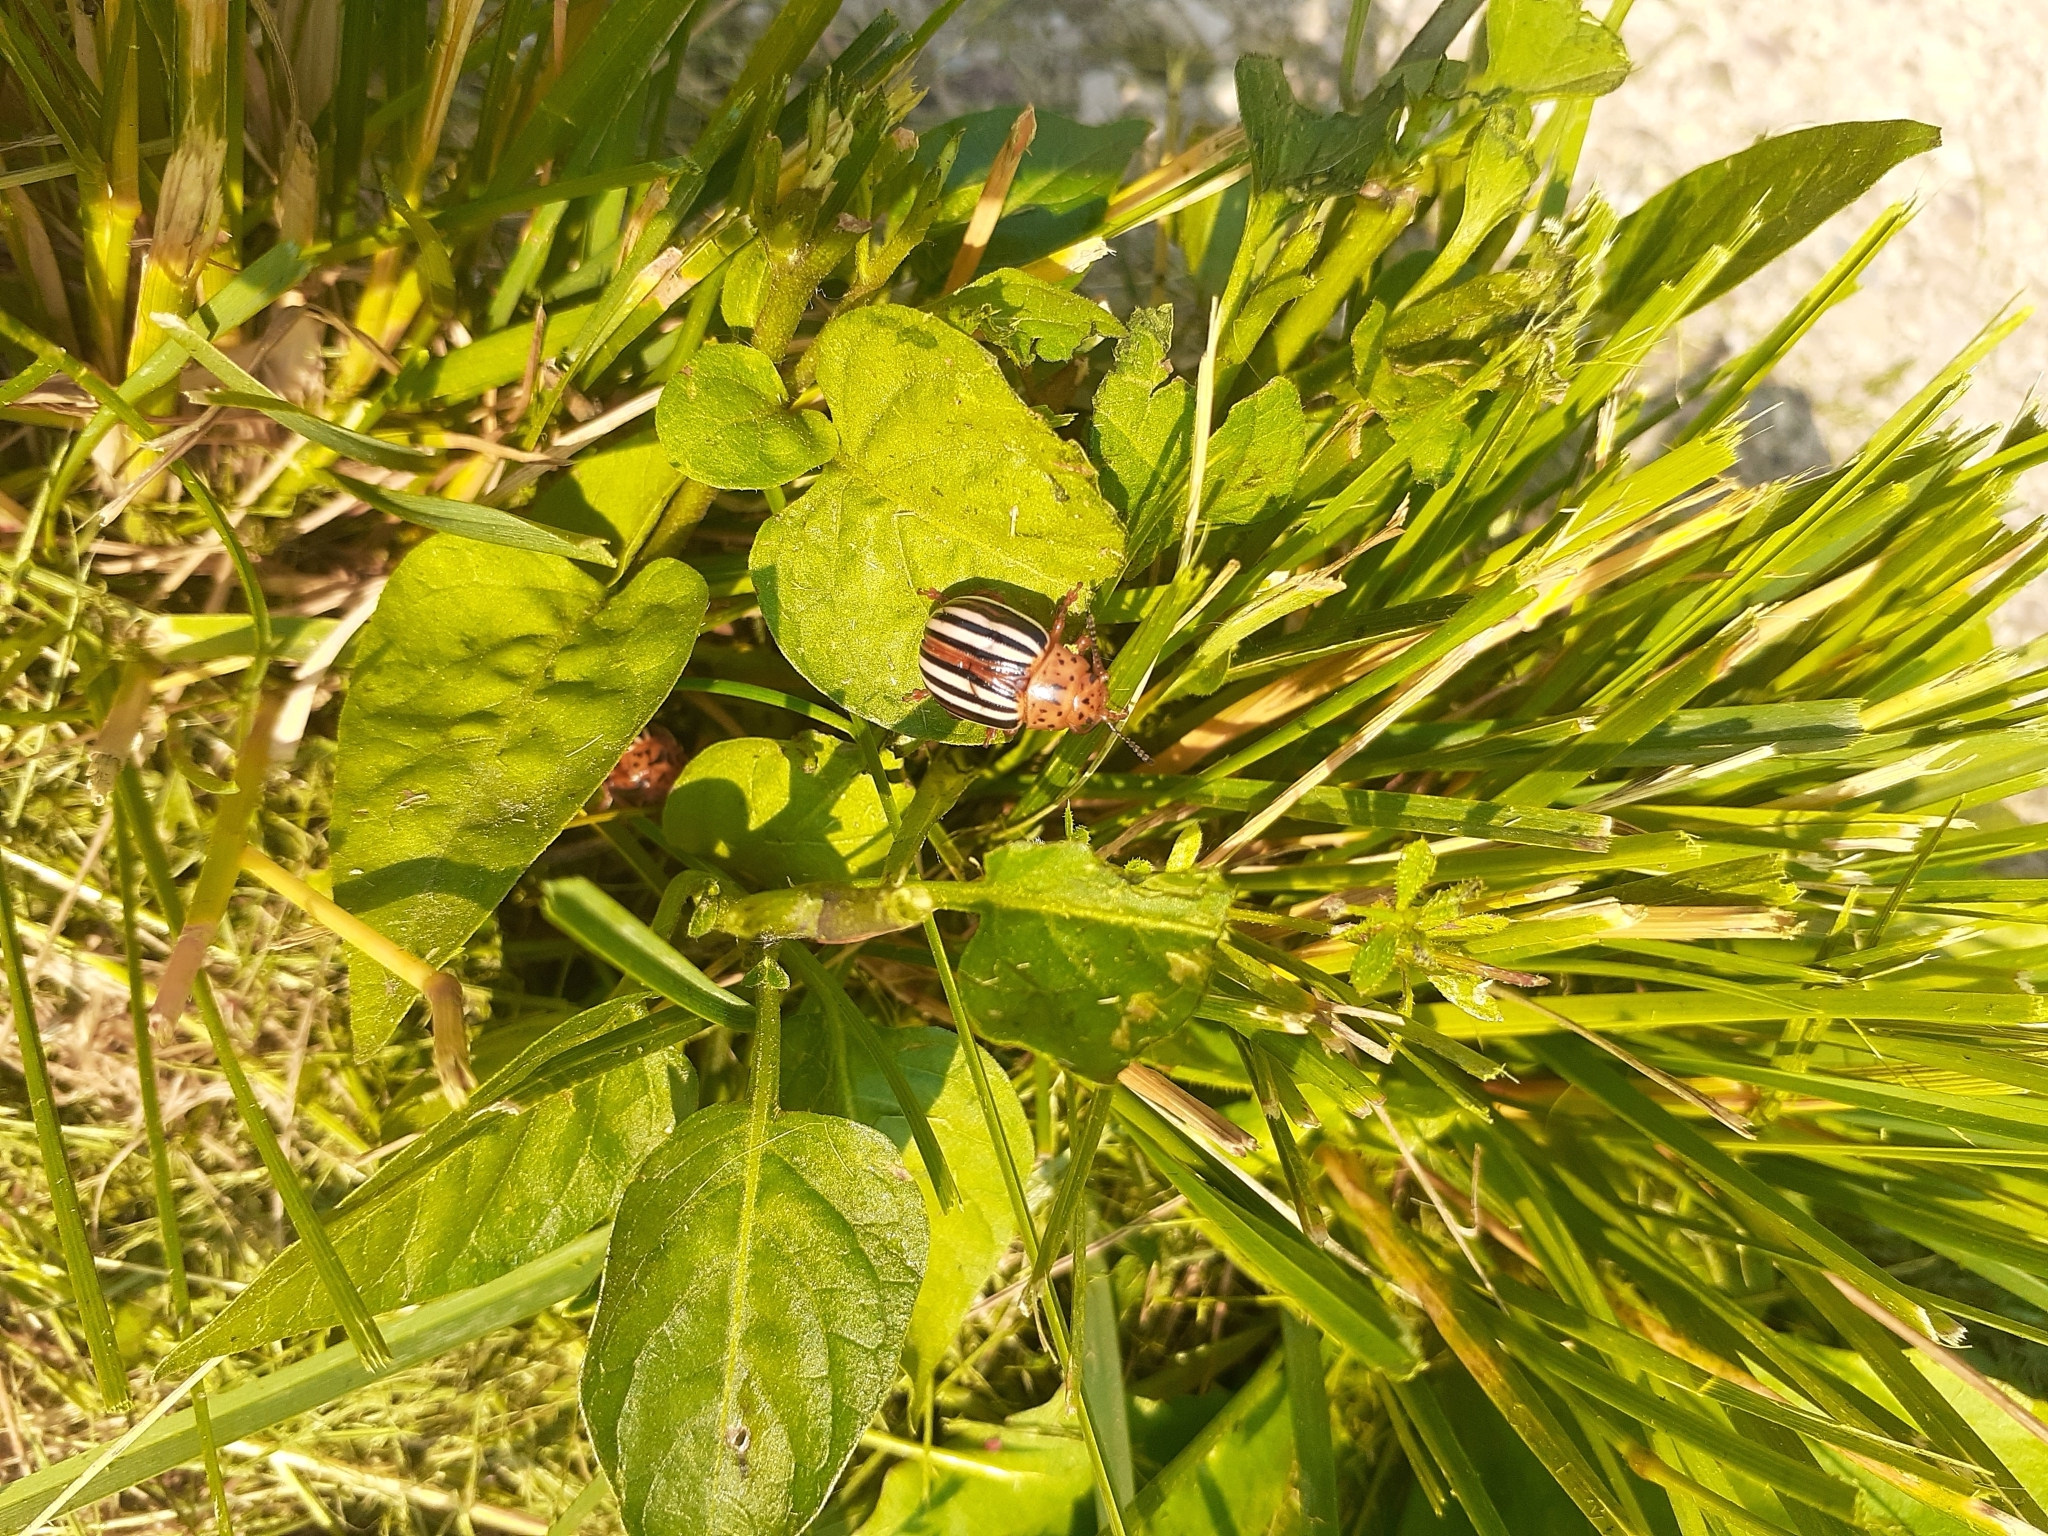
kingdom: Animalia
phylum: Arthropoda
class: Insecta
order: Coleoptera
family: Chrysomelidae
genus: Leptinotarsa
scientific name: Leptinotarsa juncta
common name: False potato beetle
